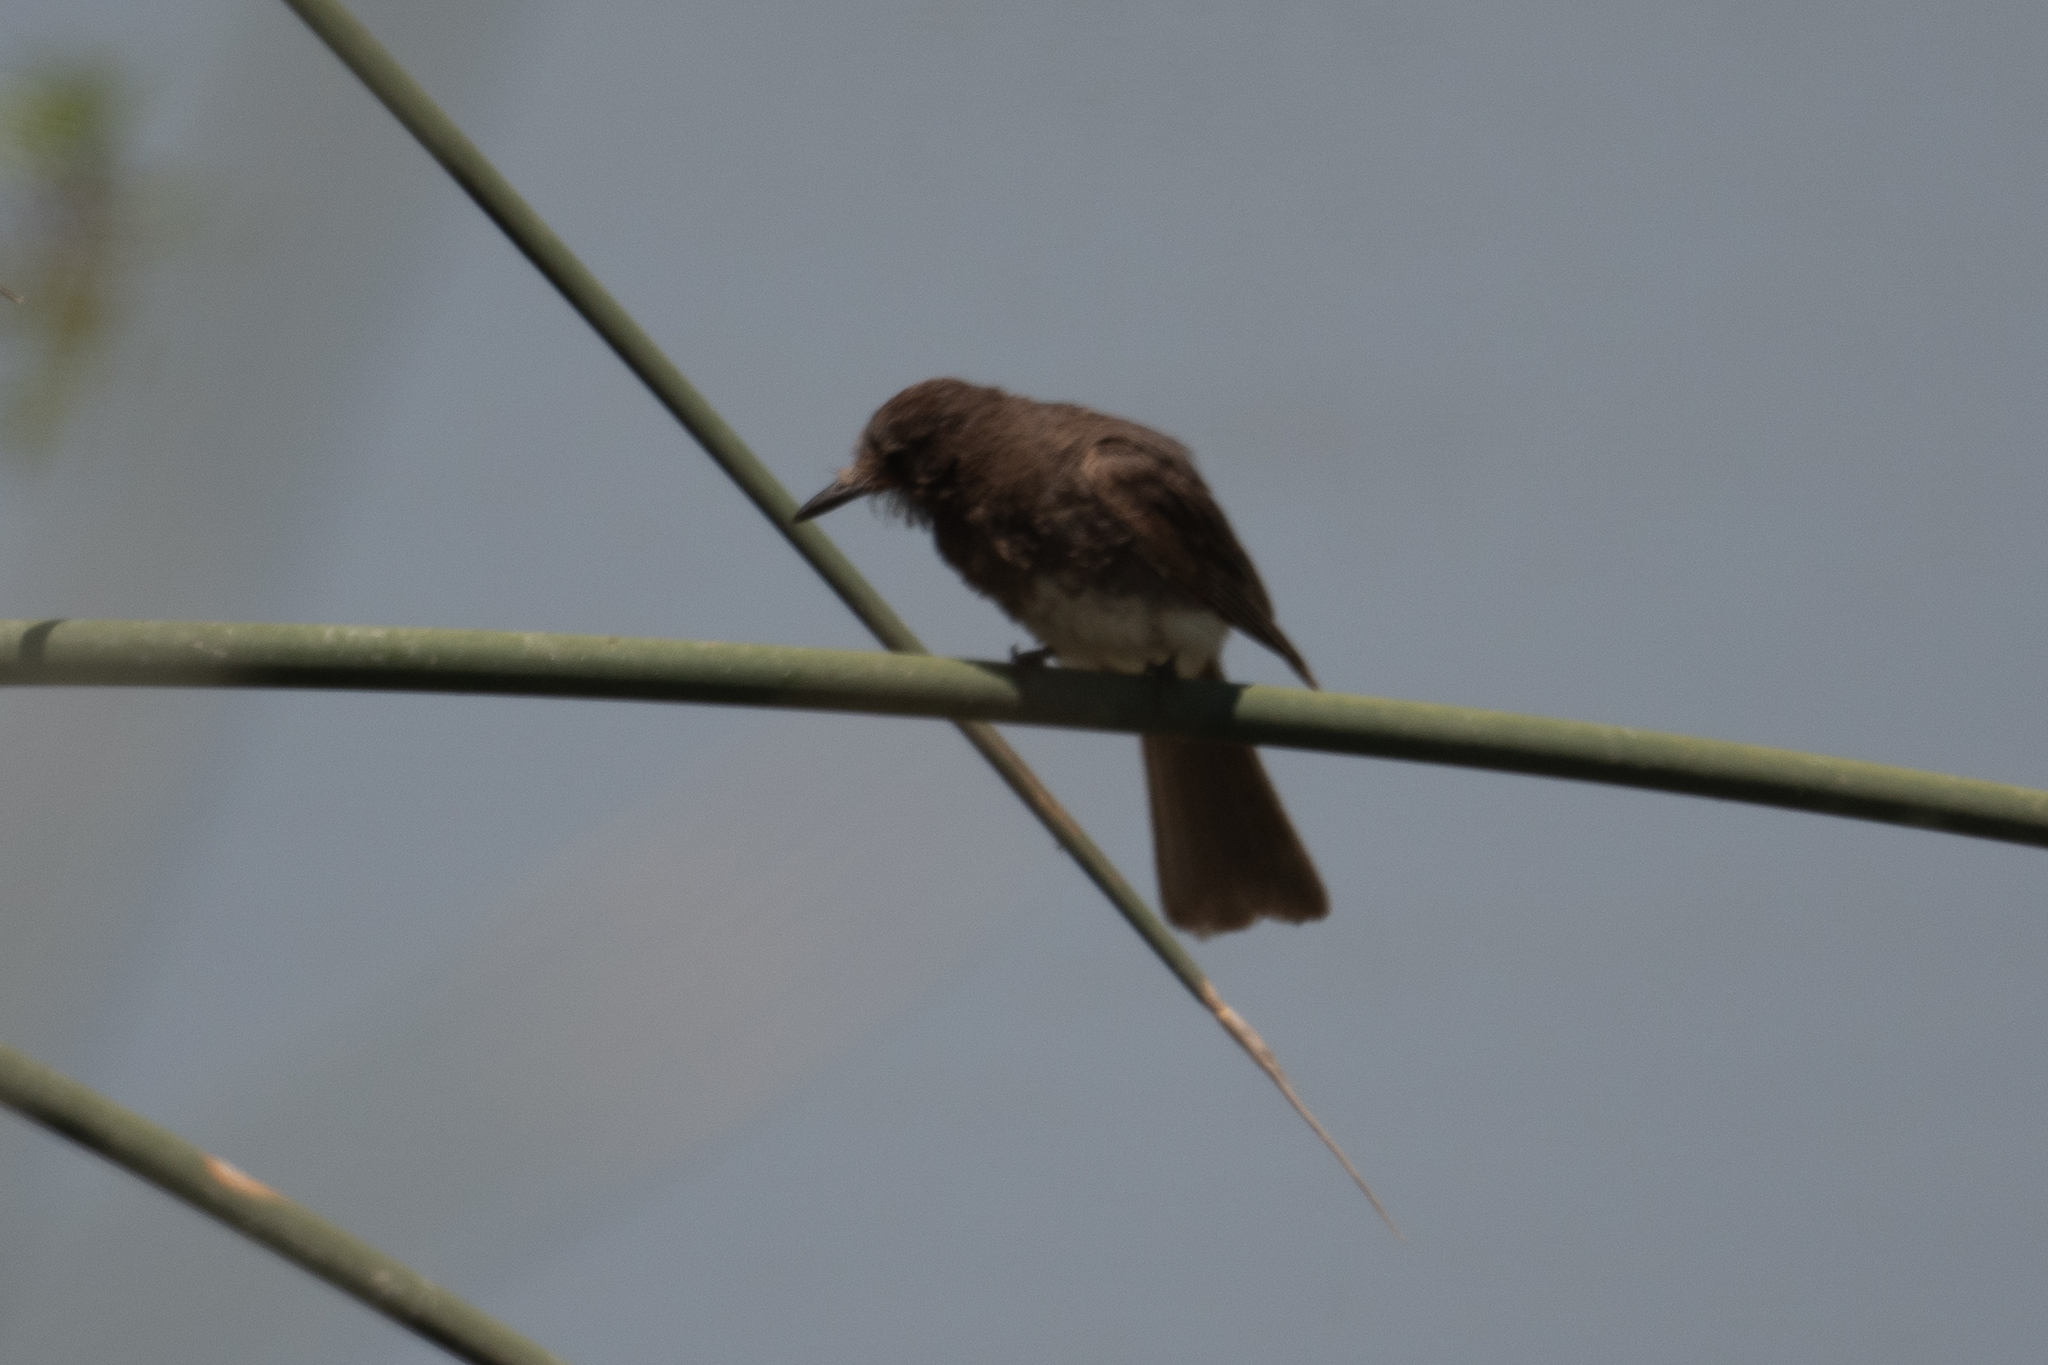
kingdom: Animalia
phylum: Chordata
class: Aves
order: Passeriformes
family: Tyrannidae
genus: Sayornis
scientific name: Sayornis nigricans
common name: Black phoebe
